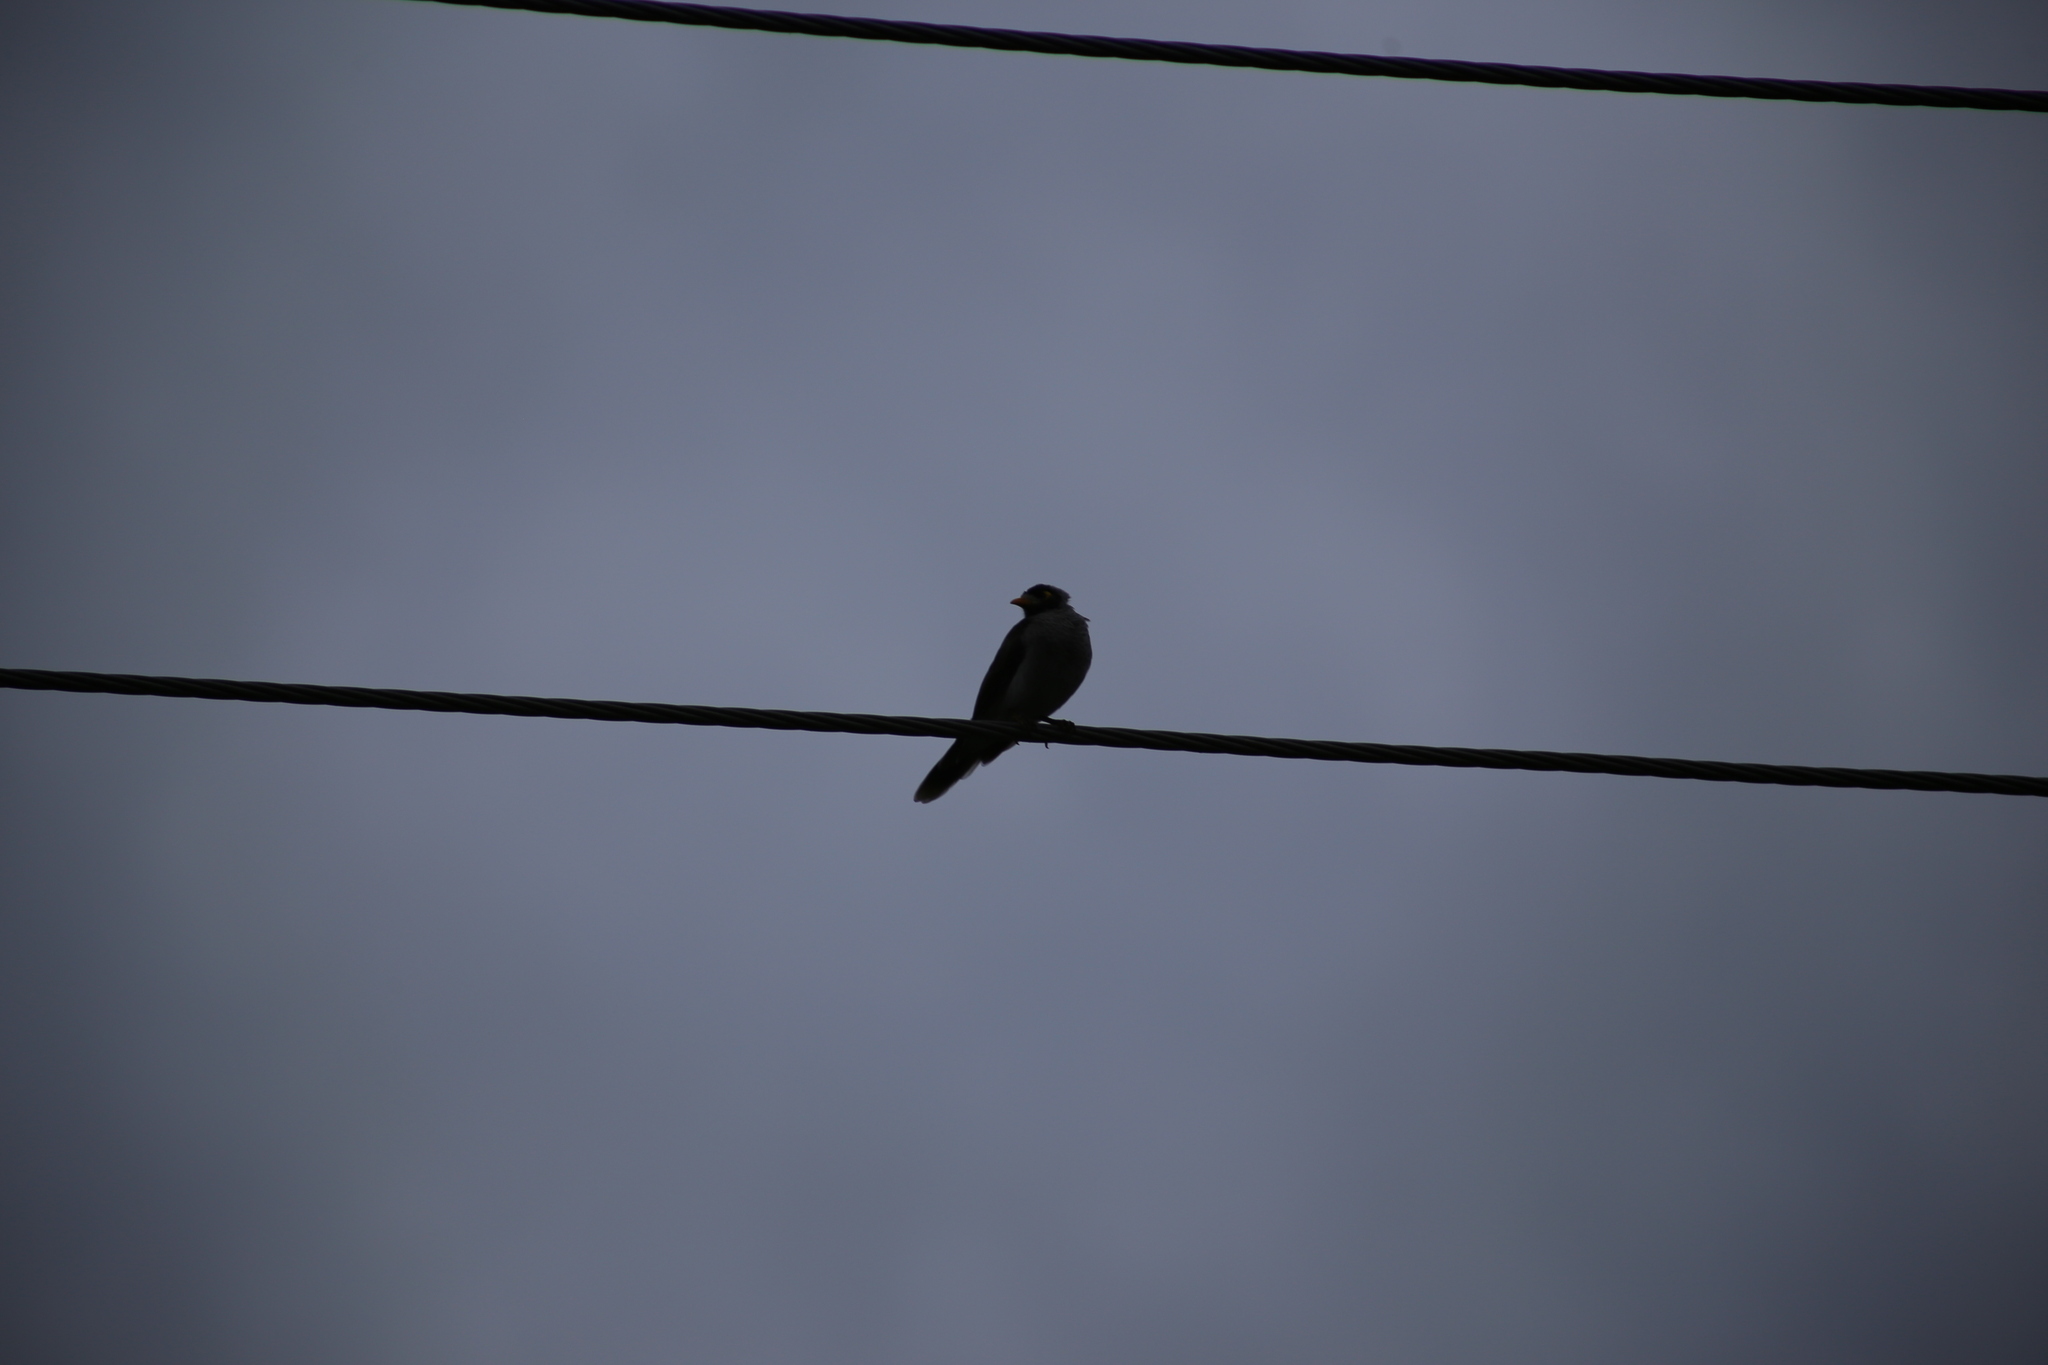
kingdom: Animalia
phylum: Chordata
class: Aves
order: Passeriformes
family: Meliphagidae
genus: Manorina
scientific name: Manorina melanocephala
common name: Noisy miner
